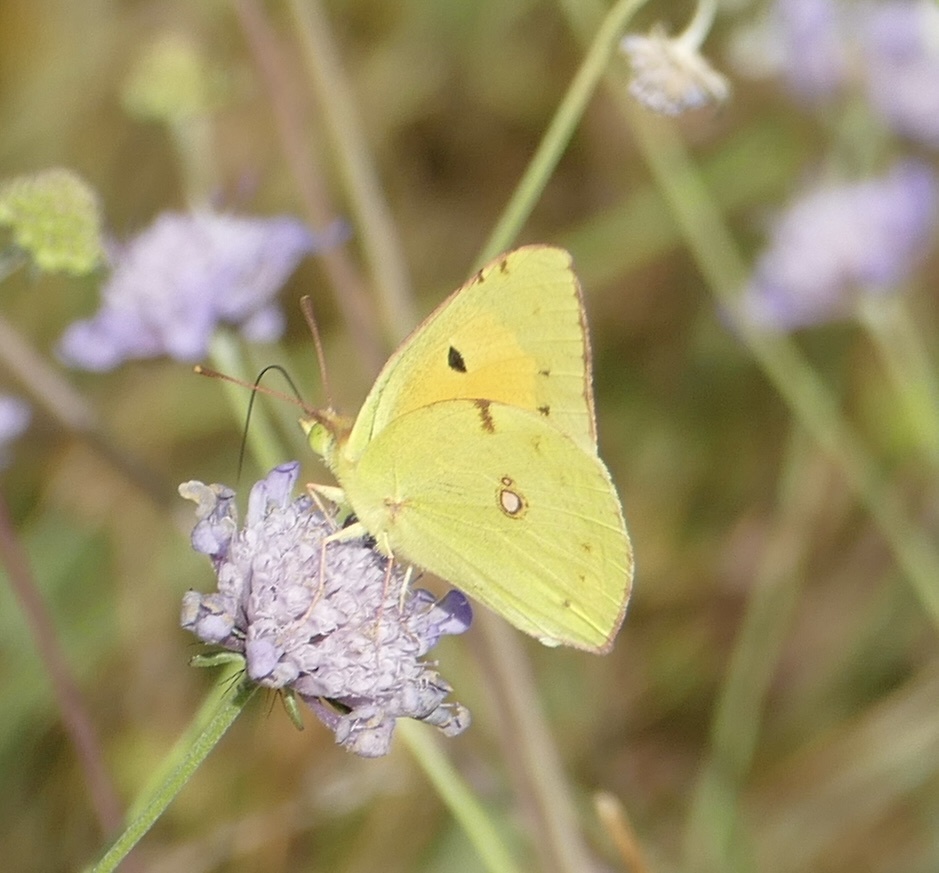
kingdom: Animalia
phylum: Arthropoda
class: Insecta
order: Lepidoptera
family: Pieridae
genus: Colias
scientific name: Colias croceus
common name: Clouded yellow
